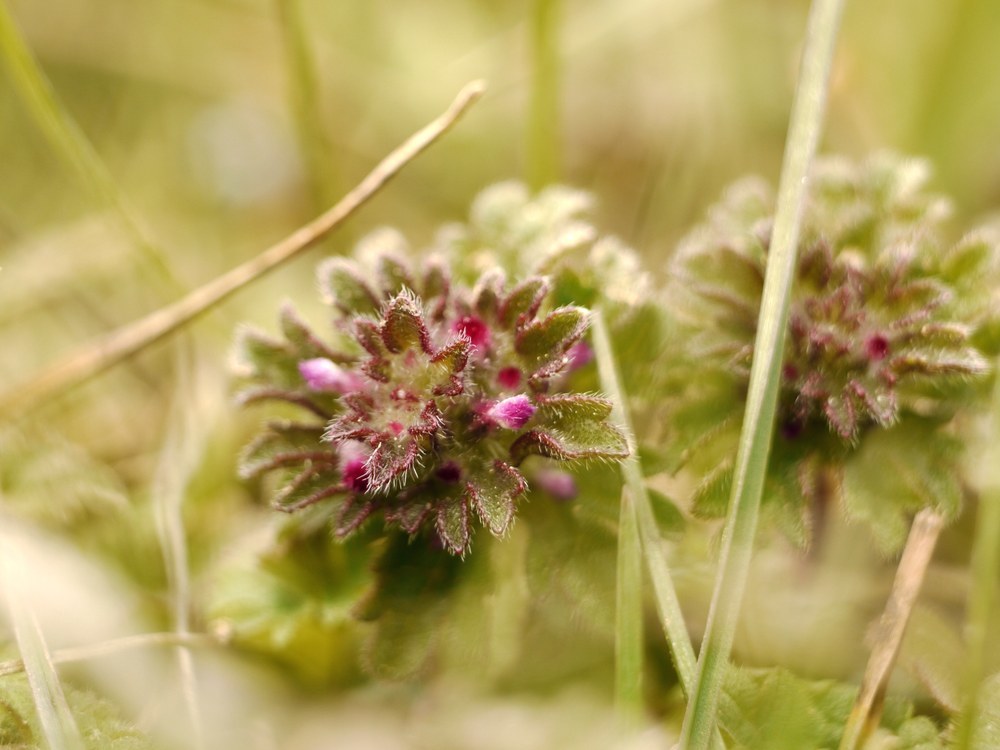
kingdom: Plantae
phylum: Tracheophyta
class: Magnoliopsida
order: Lamiales
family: Lamiaceae
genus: Lamium
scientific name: Lamium amplexicaule
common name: Henbit dead-nettle
